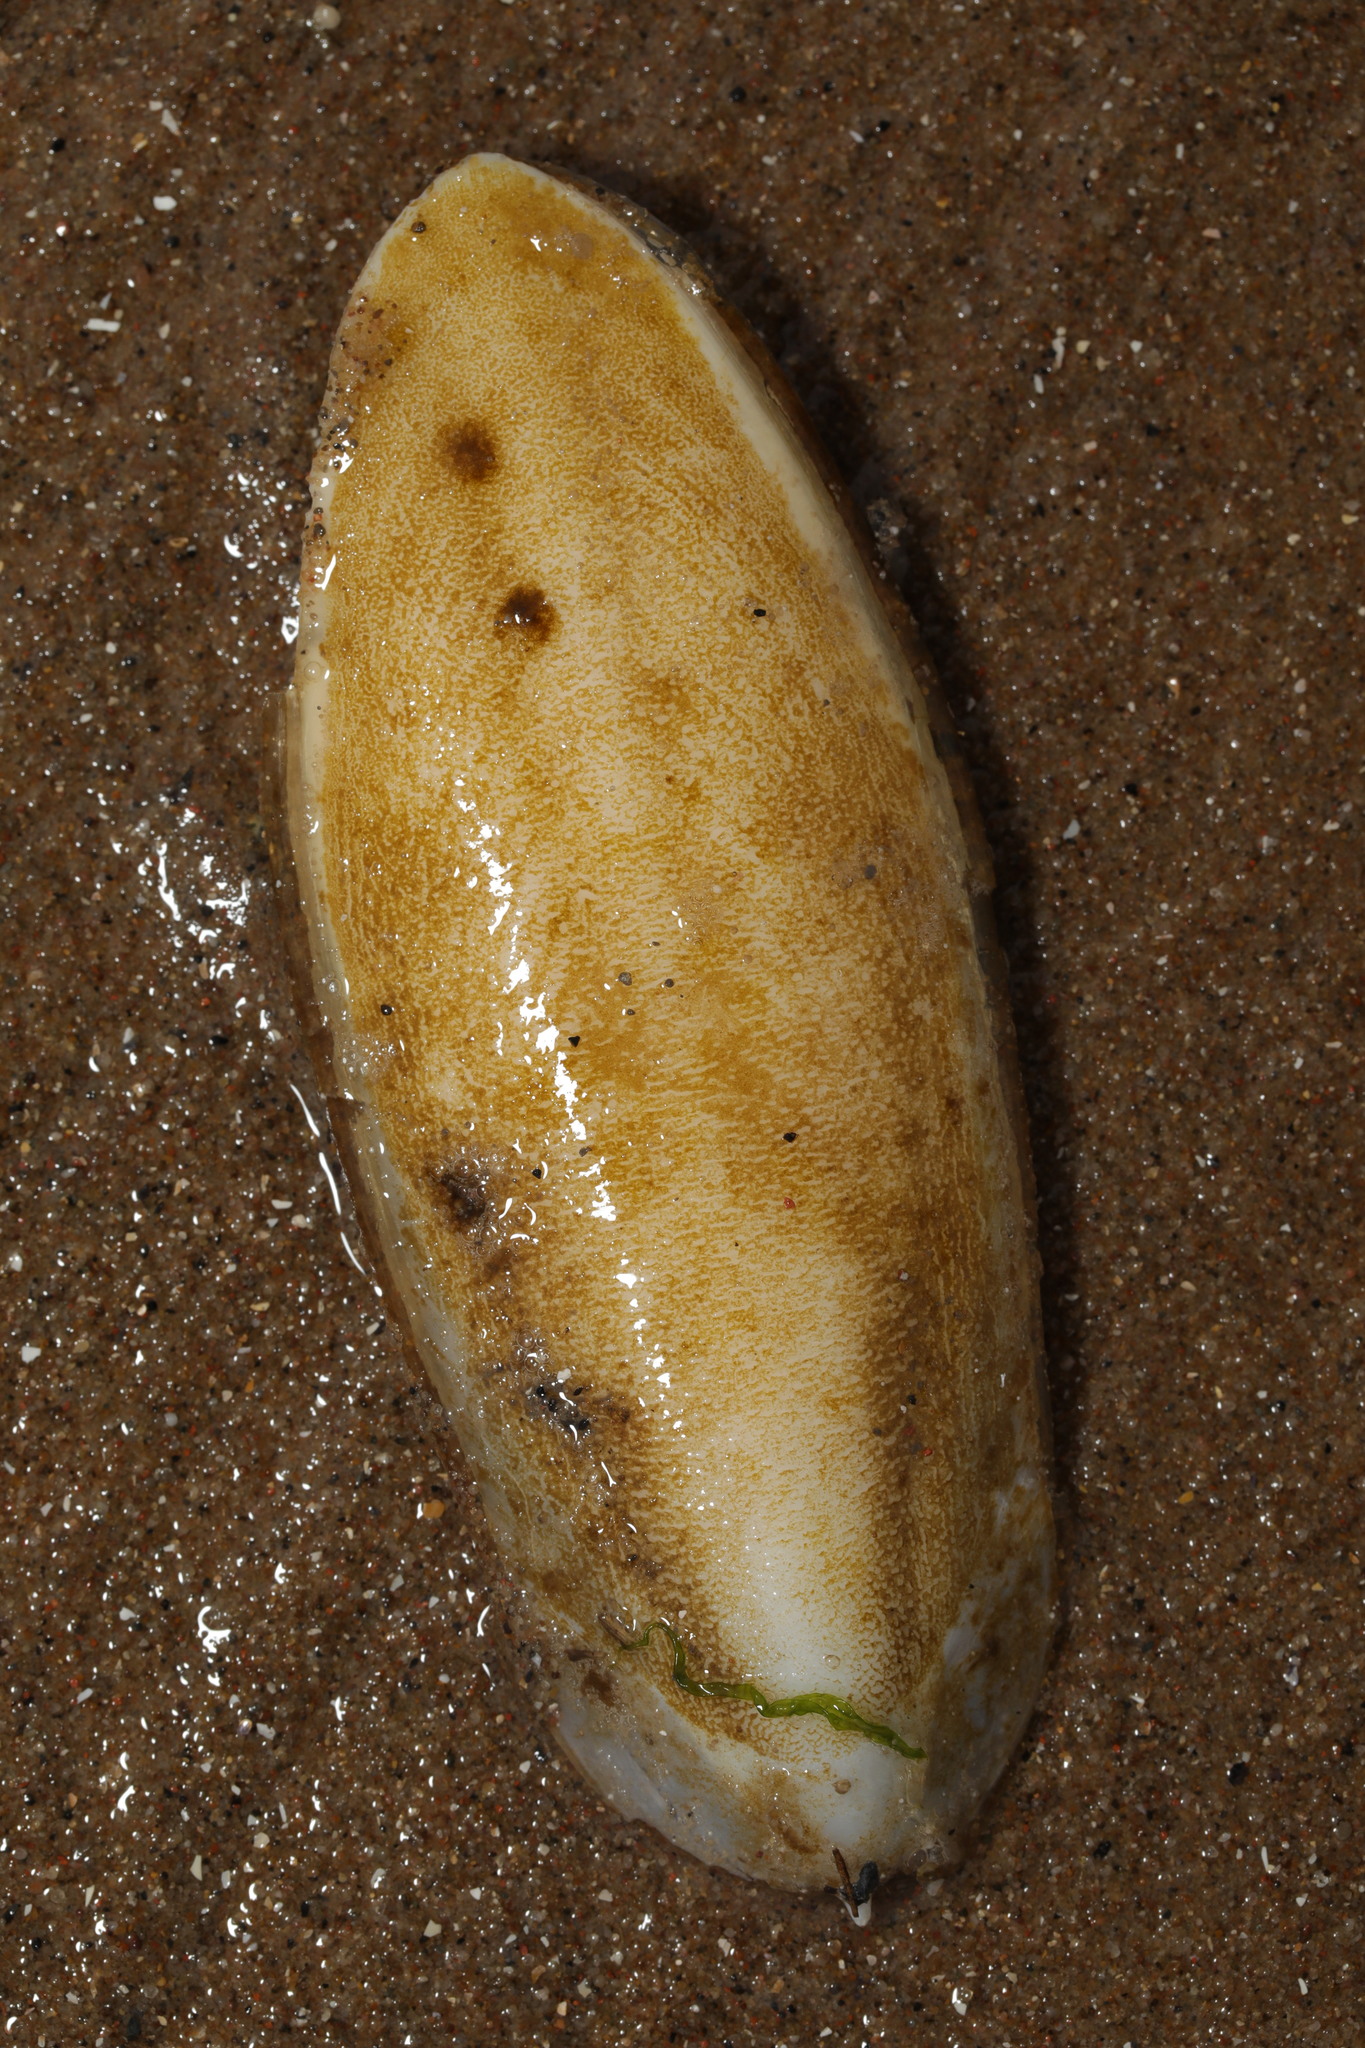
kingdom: Animalia
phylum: Mollusca
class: Cephalopoda
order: Sepiida
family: Sepiidae
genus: Sepia
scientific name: Sepia officinalis
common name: Common cuttlefish
